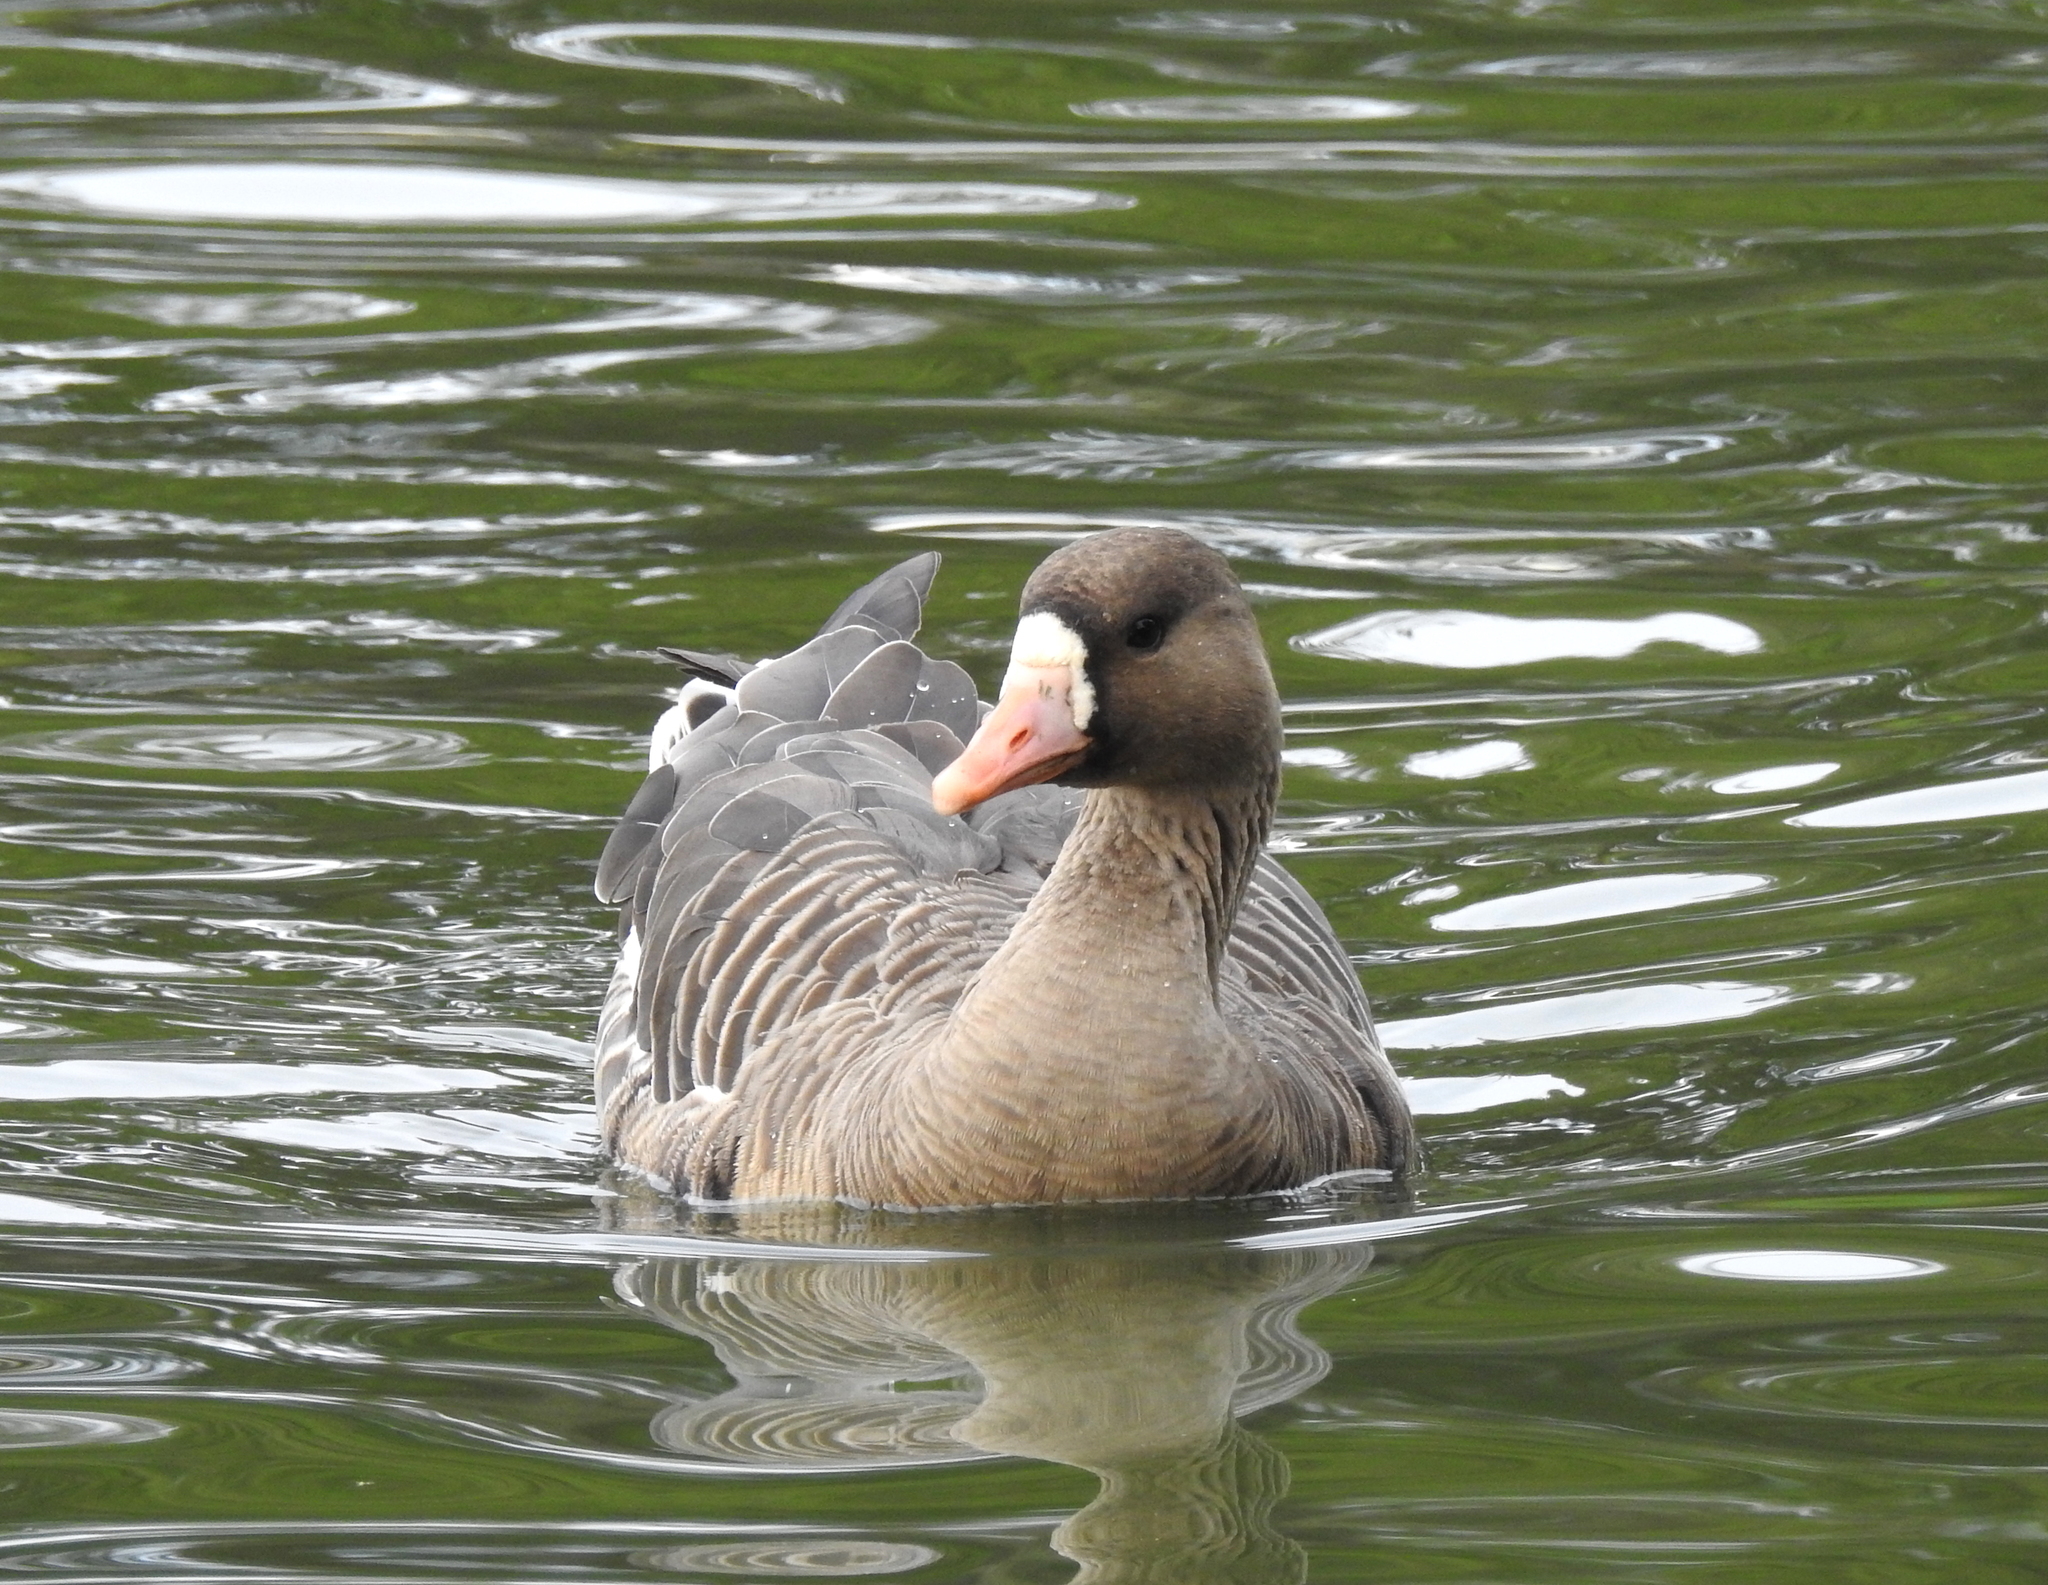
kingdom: Animalia
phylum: Chordata
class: Aves
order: Anseriformes
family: Anatidae
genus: Anser
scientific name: Anser albifrons
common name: Greater white-fronted goose
